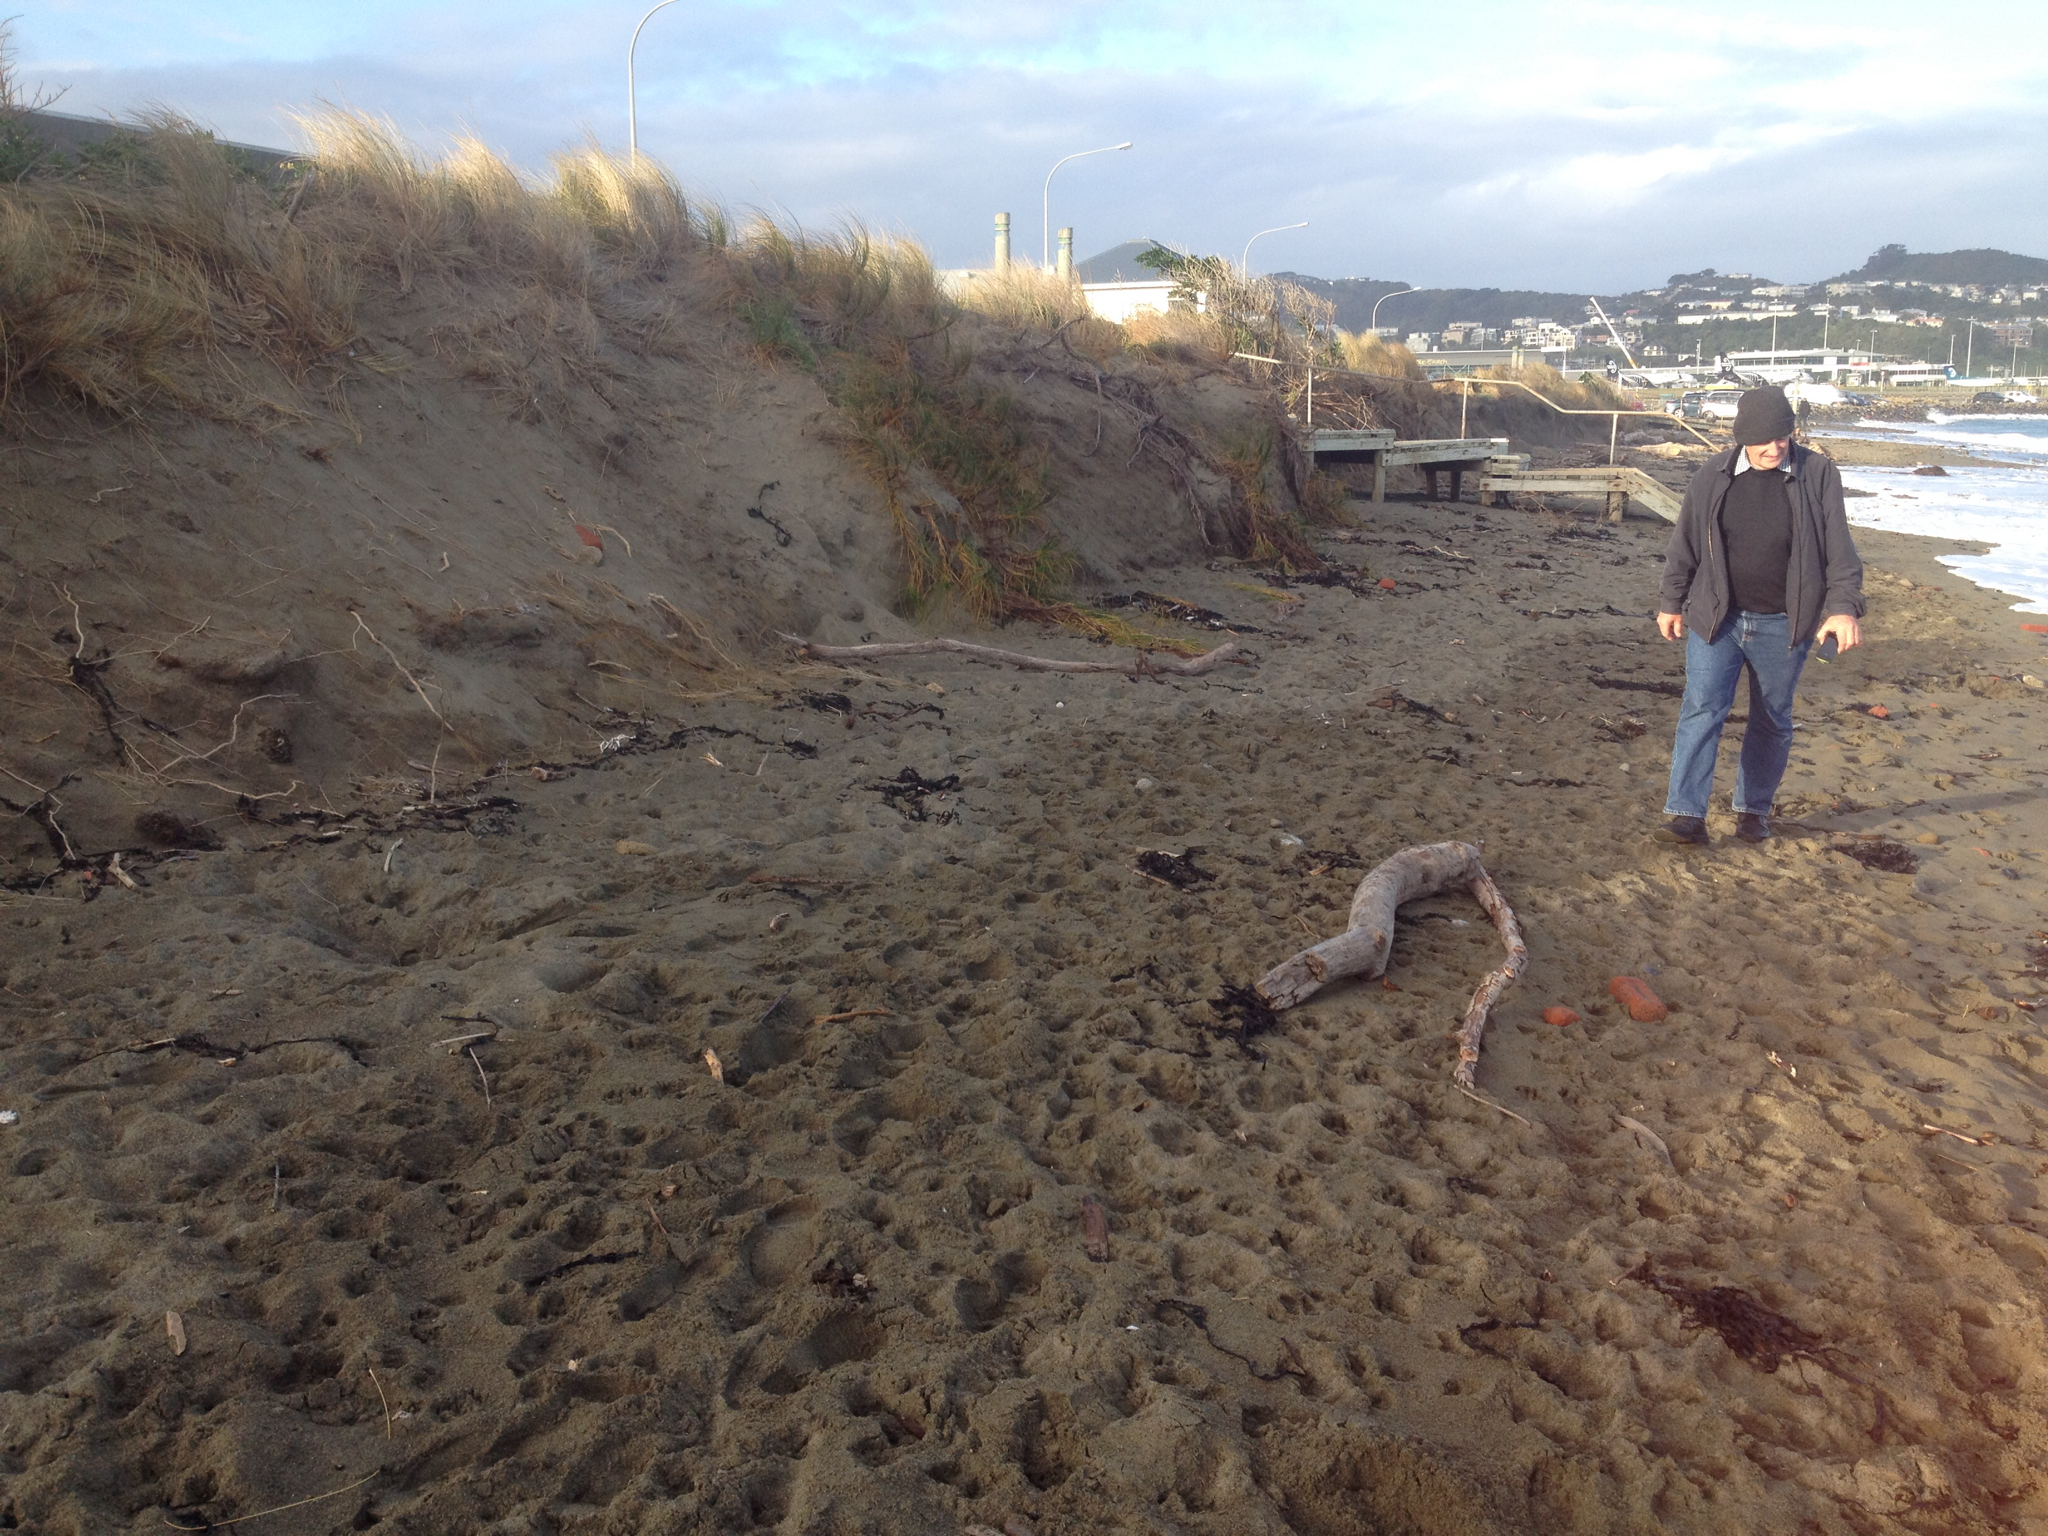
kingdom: Plantae
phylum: Tracheophyta
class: Liliopsida
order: Poales
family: Cyperaceae
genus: Ficinia
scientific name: Ficinia spiralis
